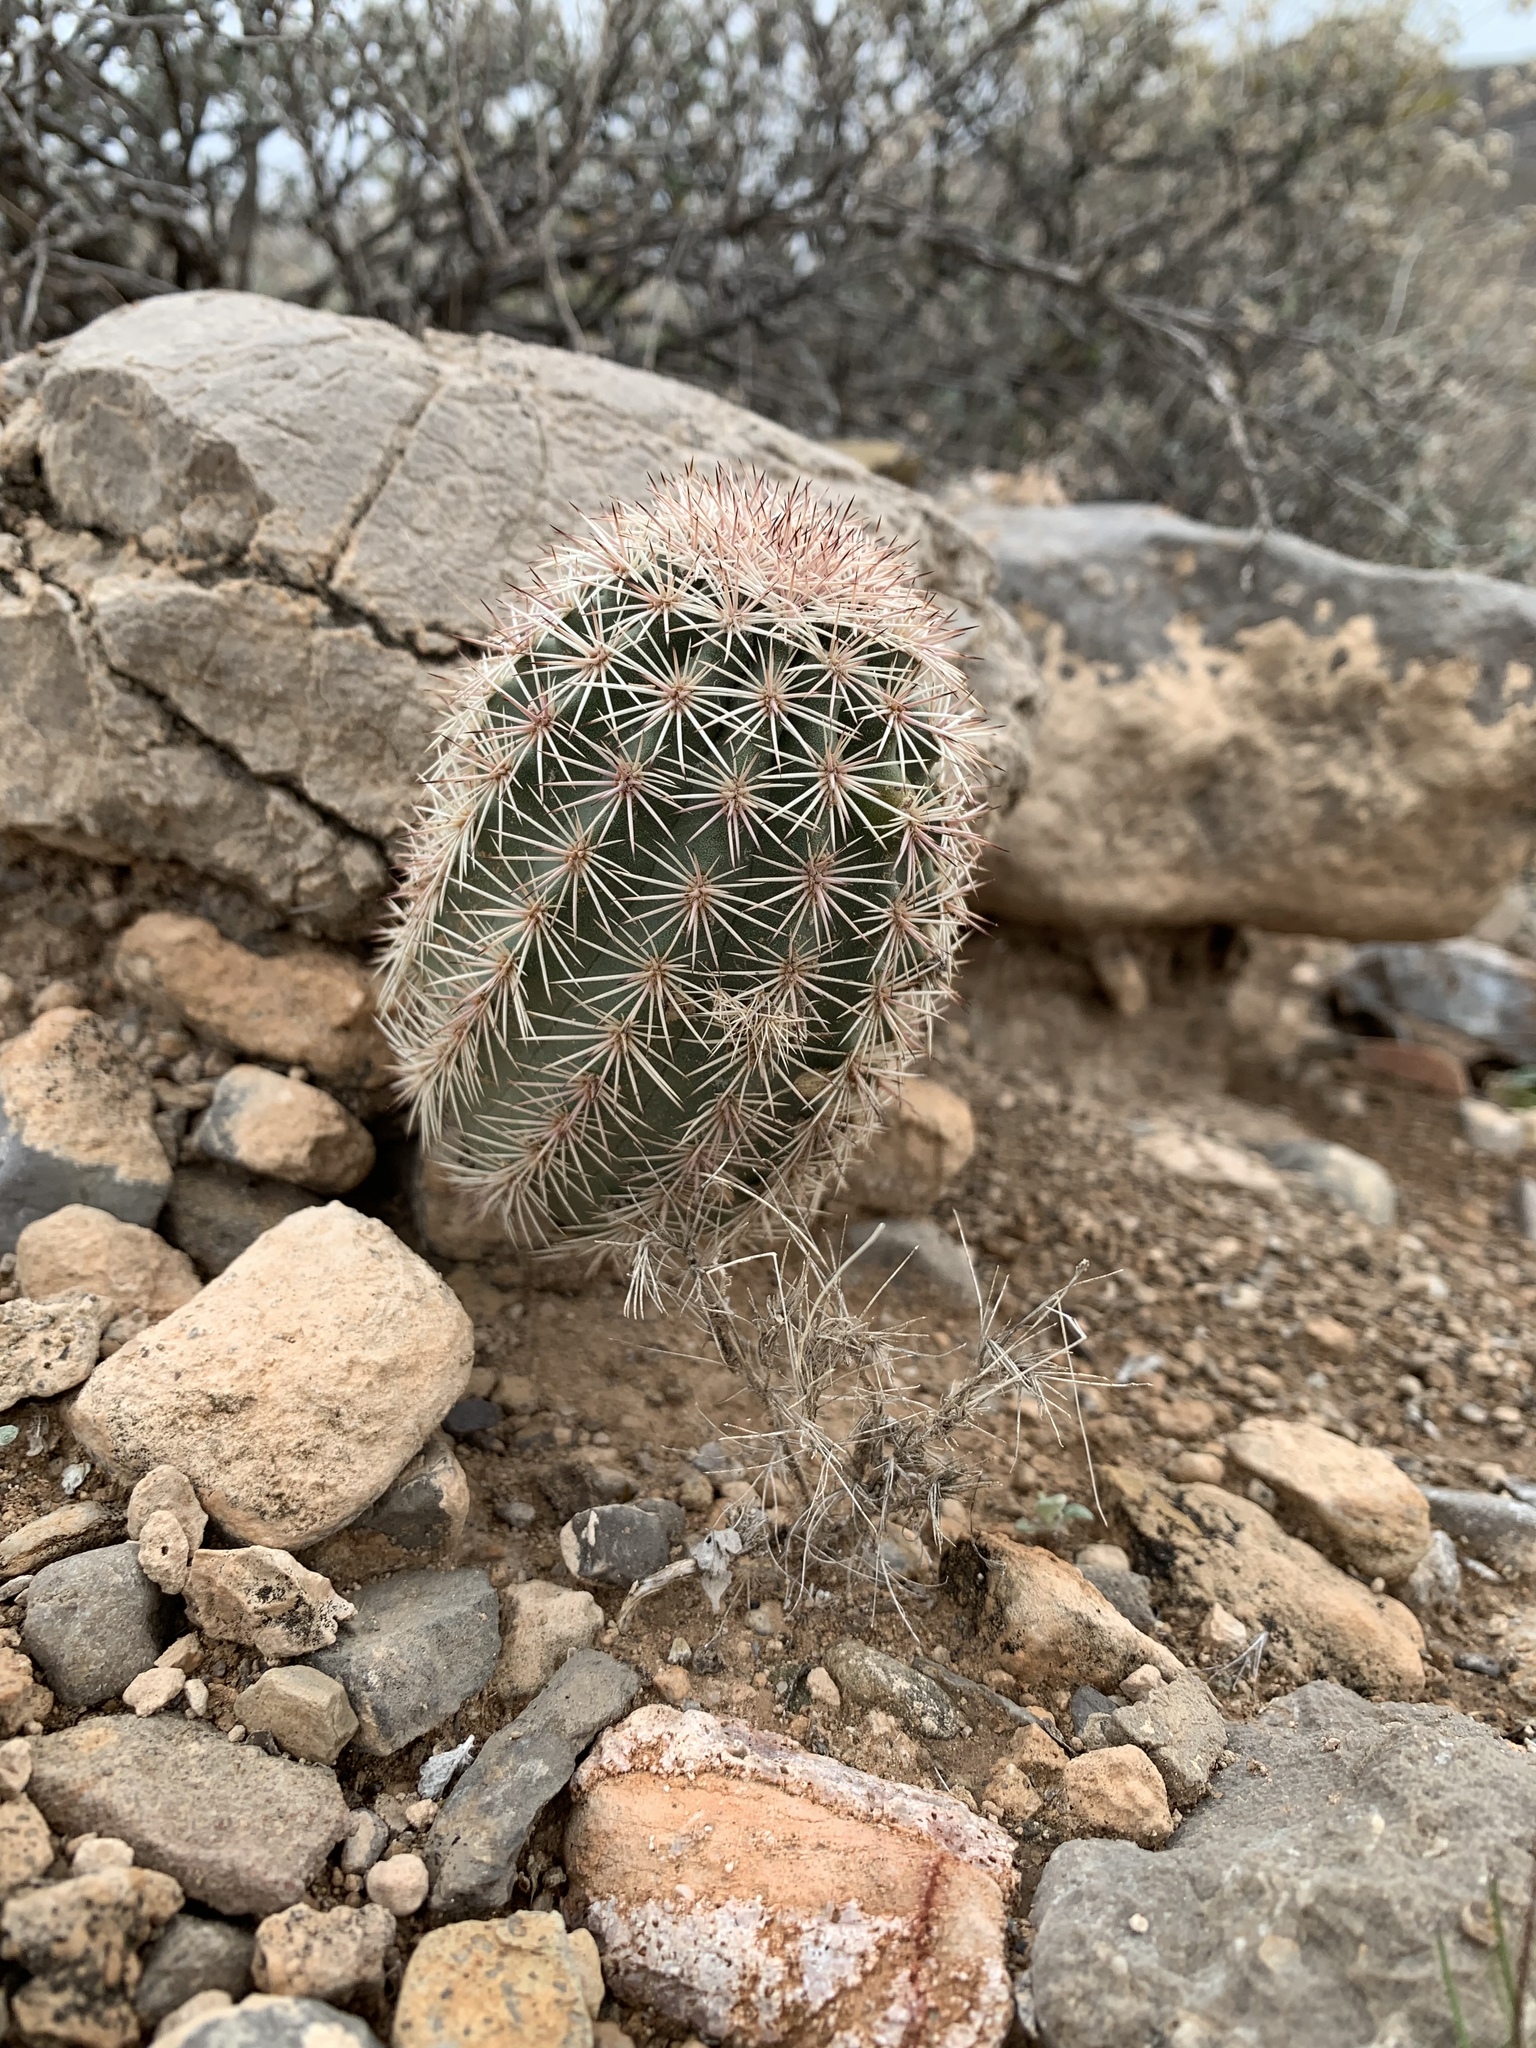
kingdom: Plantae
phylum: Tracheophyta
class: Magnoliopsida
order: Caryophyllales
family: Cactaceae
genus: Echinocereus
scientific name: Echinocereus dasyacanthus
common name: Spiny hedgehog cactus
